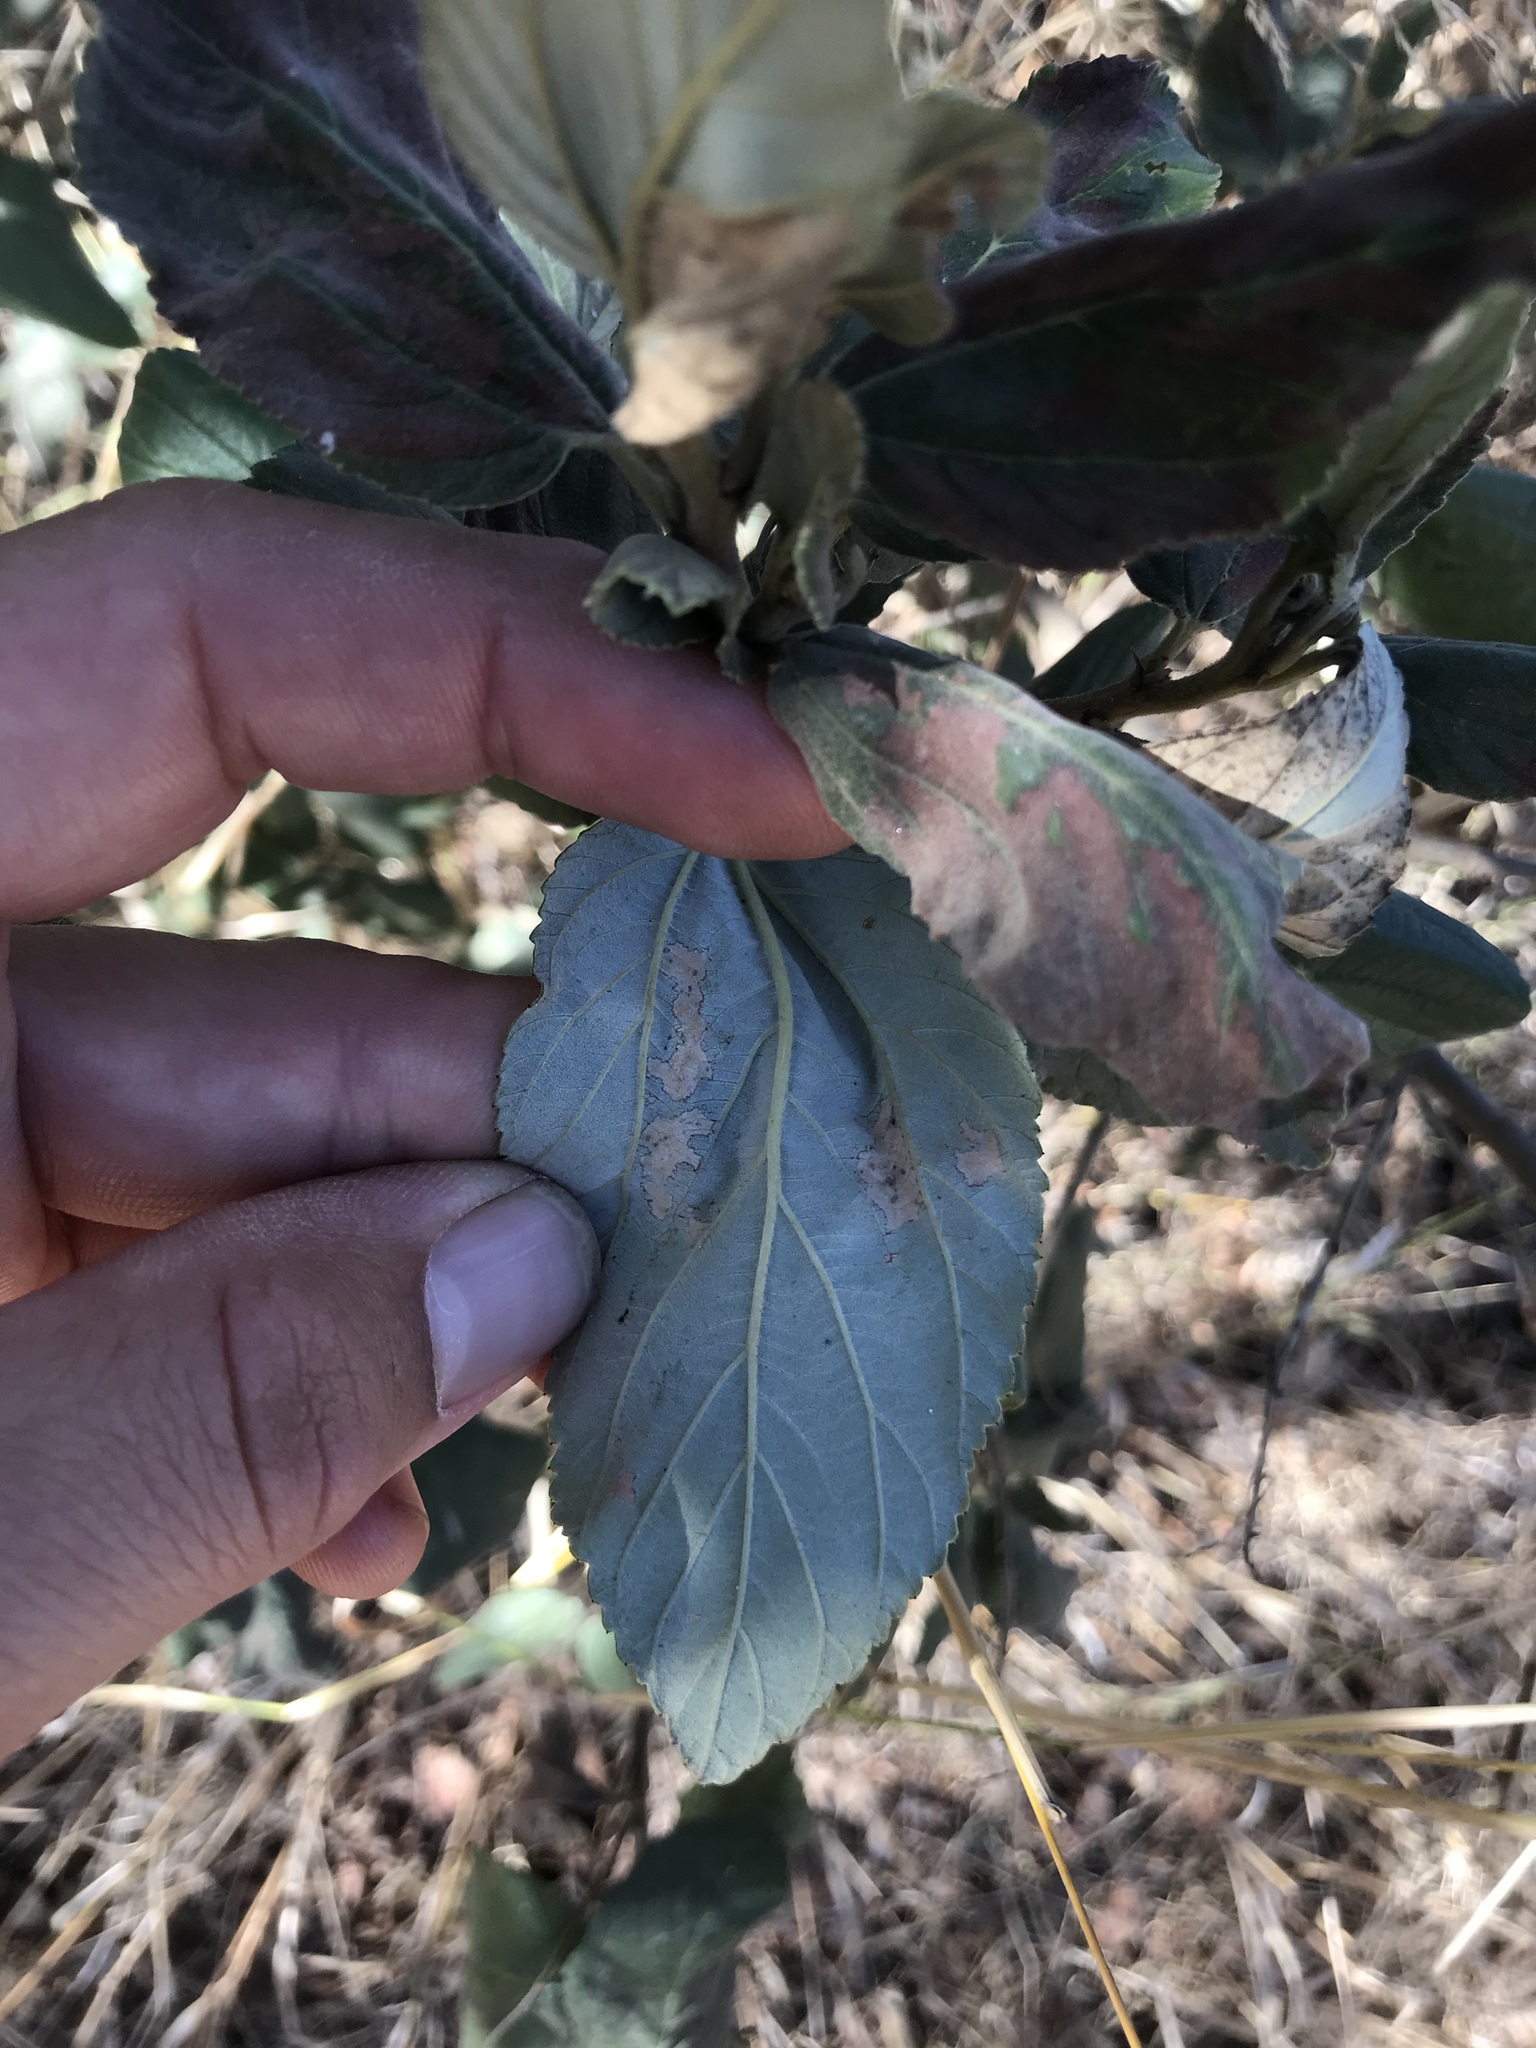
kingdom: Plantae
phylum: Tracheophyta
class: Magnoliopsida
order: Rosales
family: Rhamnaceae
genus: Ceanothus
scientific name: Ceanothus arboreus
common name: Catalina mountain-lilac
